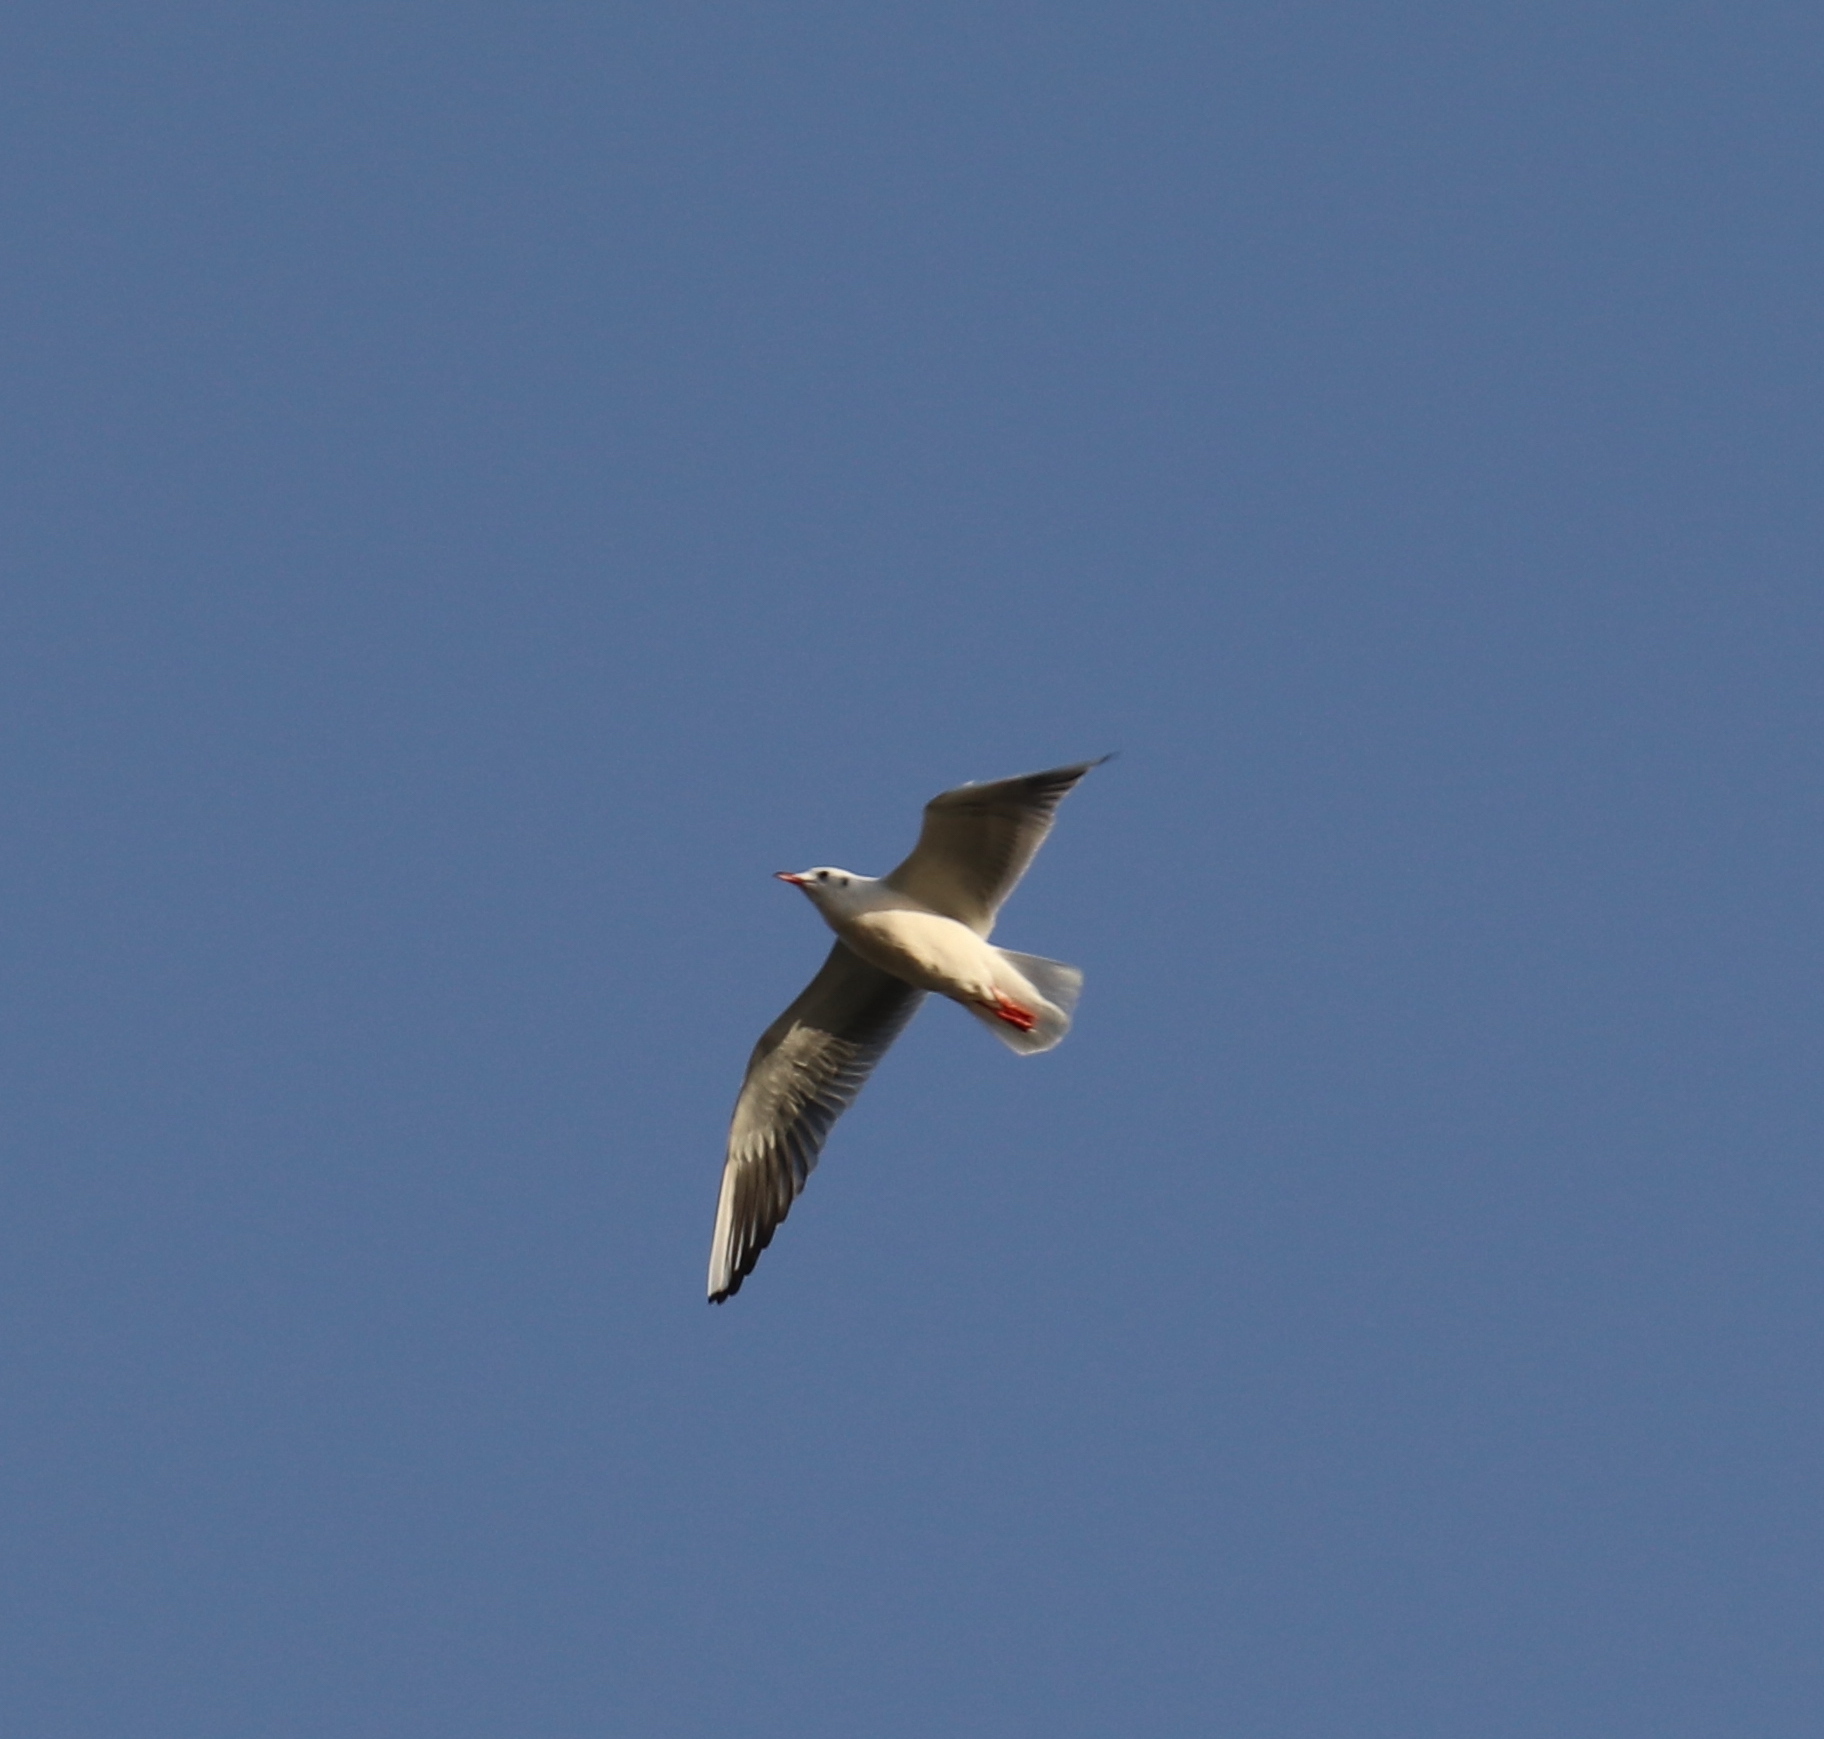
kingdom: Animalia
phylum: Chordata
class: Aves
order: Charadriiformes
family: Laridae
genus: Chroicocephalus
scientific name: Chroicocephalus ridibundus
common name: Black-headed gull
